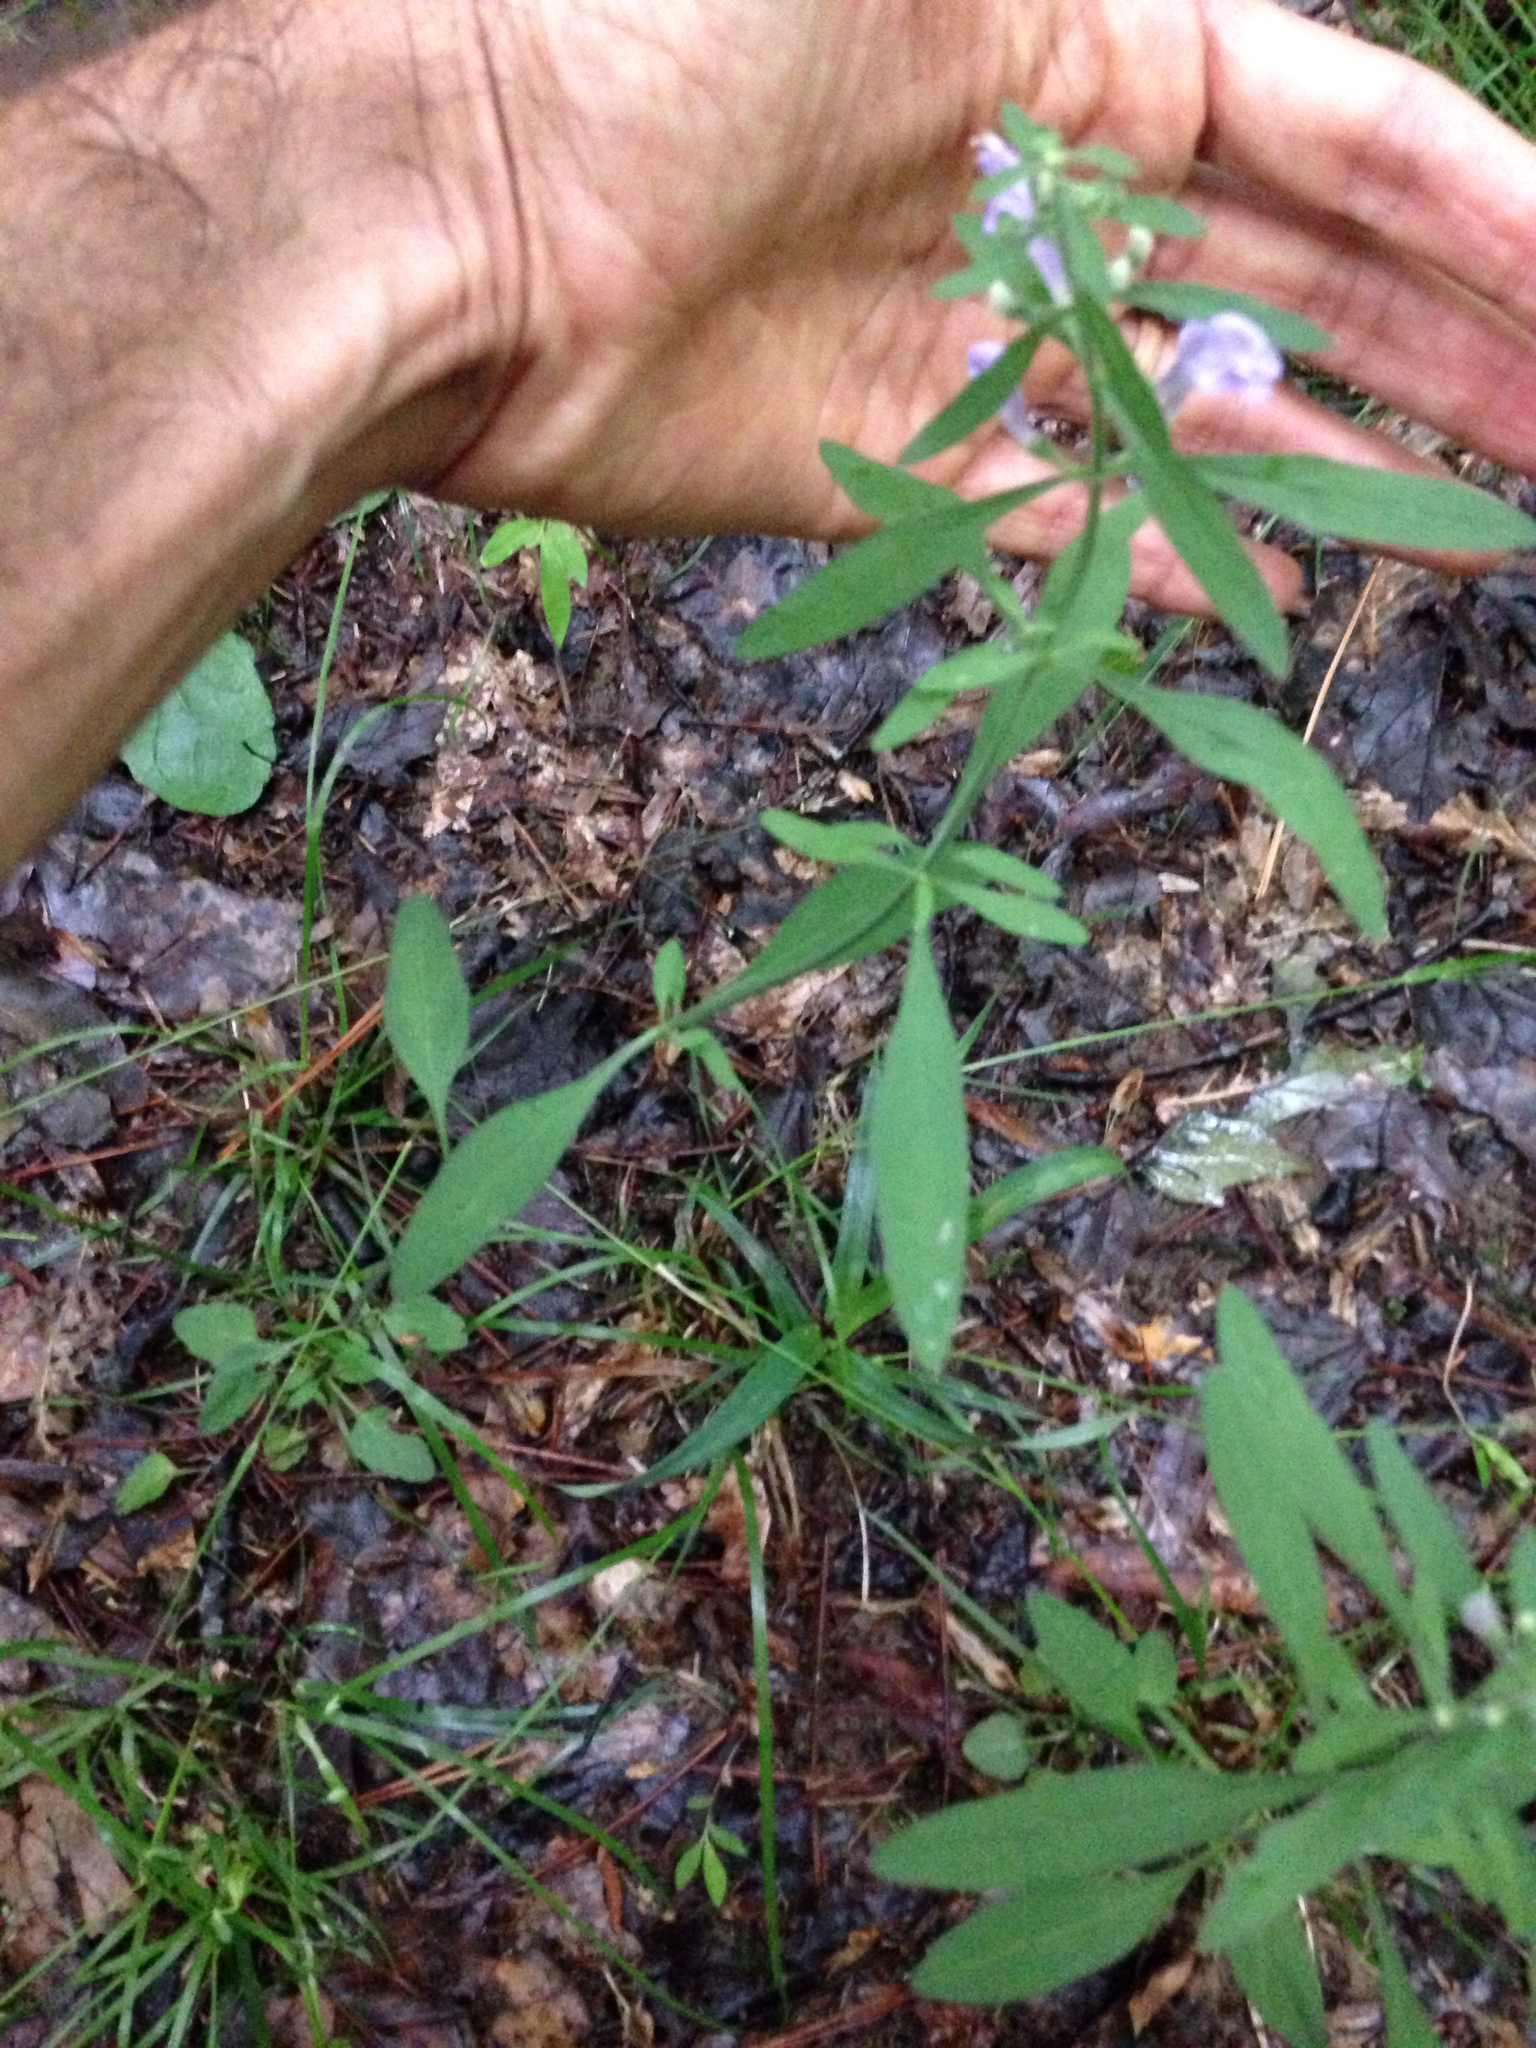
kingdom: Plantae
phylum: Tracheophyta
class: Magnoliopsida
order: Lamiales
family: Lamiaceae
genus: Scutellaria
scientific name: Scutellaria integrifolia
